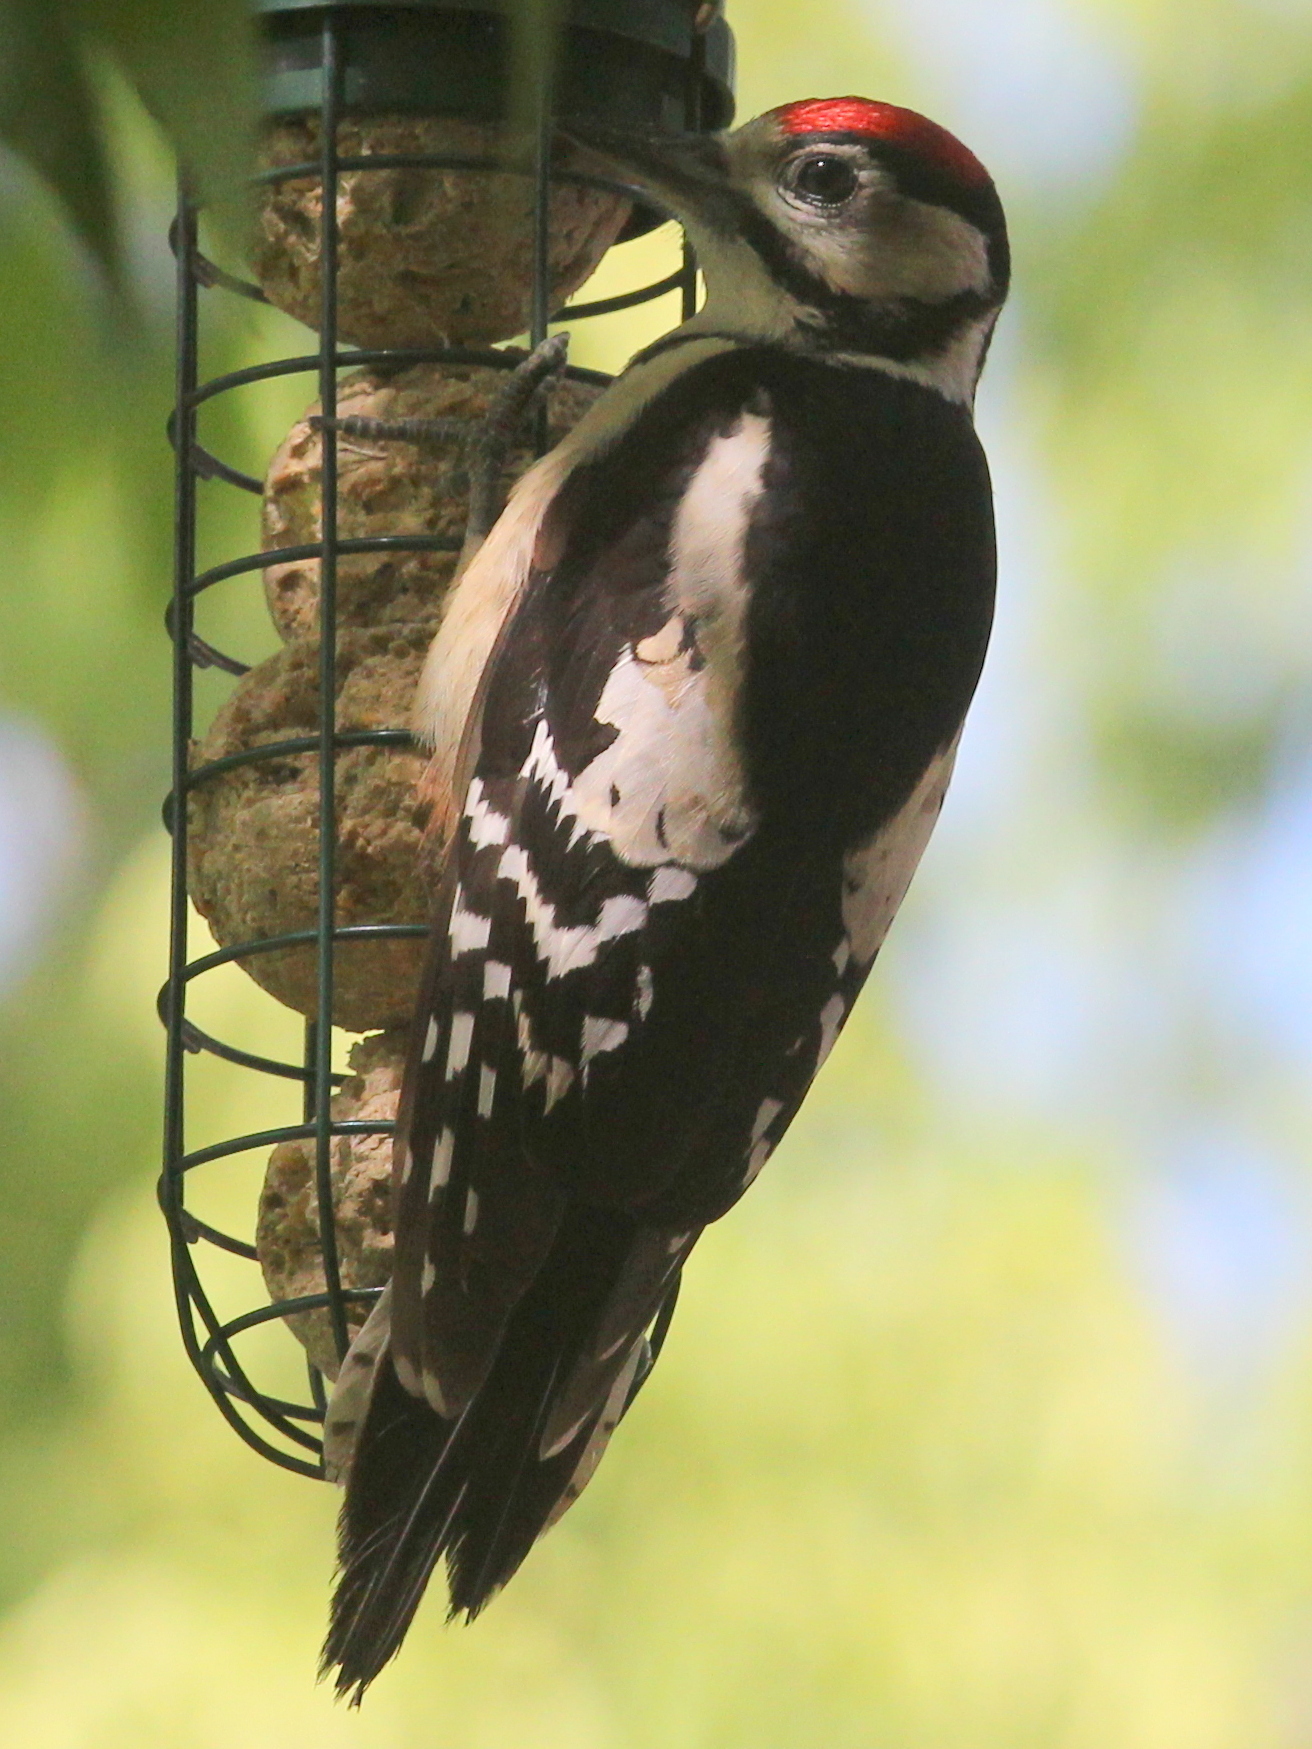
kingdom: Animalia
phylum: Chordata
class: Aves
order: Piciformes
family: Picidae
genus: Dendrocopos
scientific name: Dendrocopos major
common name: Great spotted woodpecker
